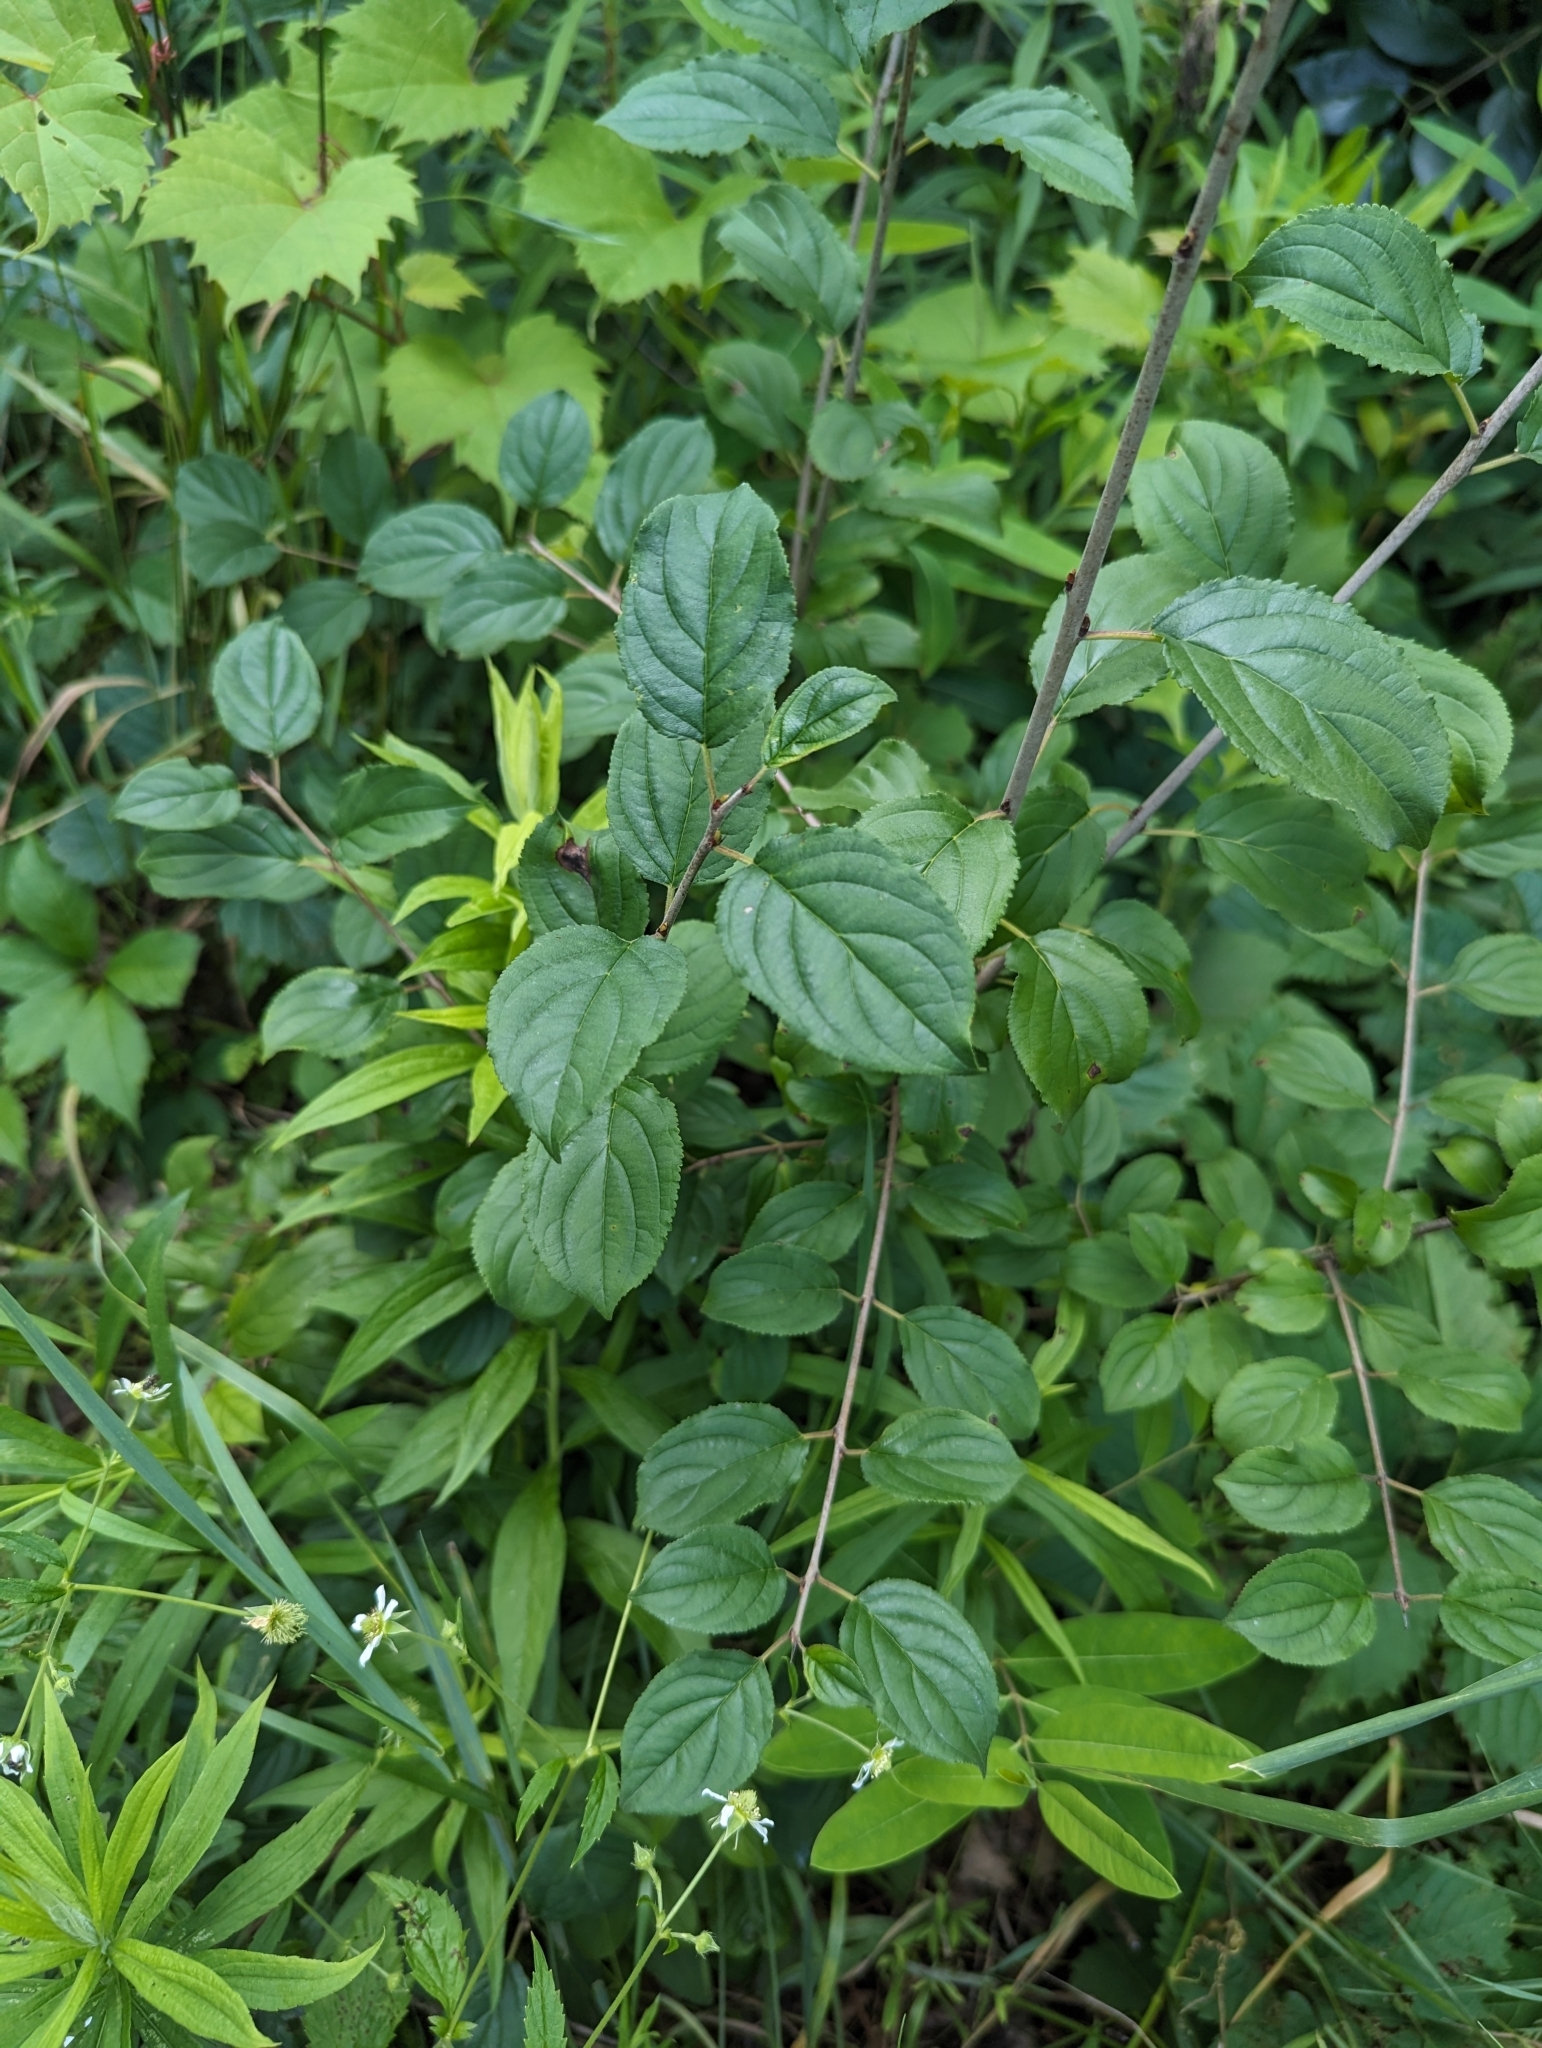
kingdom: Plantae
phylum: Tracheophyta
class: Magnoliopsida
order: Rosales
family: Rhamnaceae
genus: Rhamnus
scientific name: Rhamnus cathartica
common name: Common buckthorn
